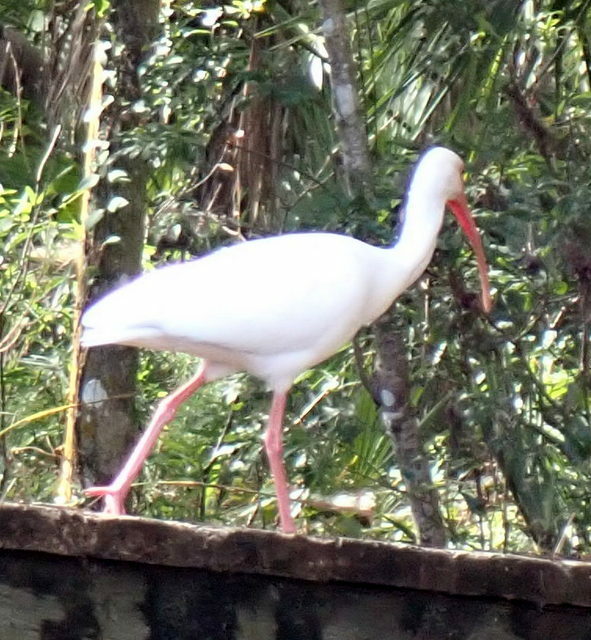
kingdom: Animalia
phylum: Chordata
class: Aves
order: Pelecaniformes
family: Threskiornithidae
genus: Eudocimus
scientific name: Eudocimus albus
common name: White ibis
